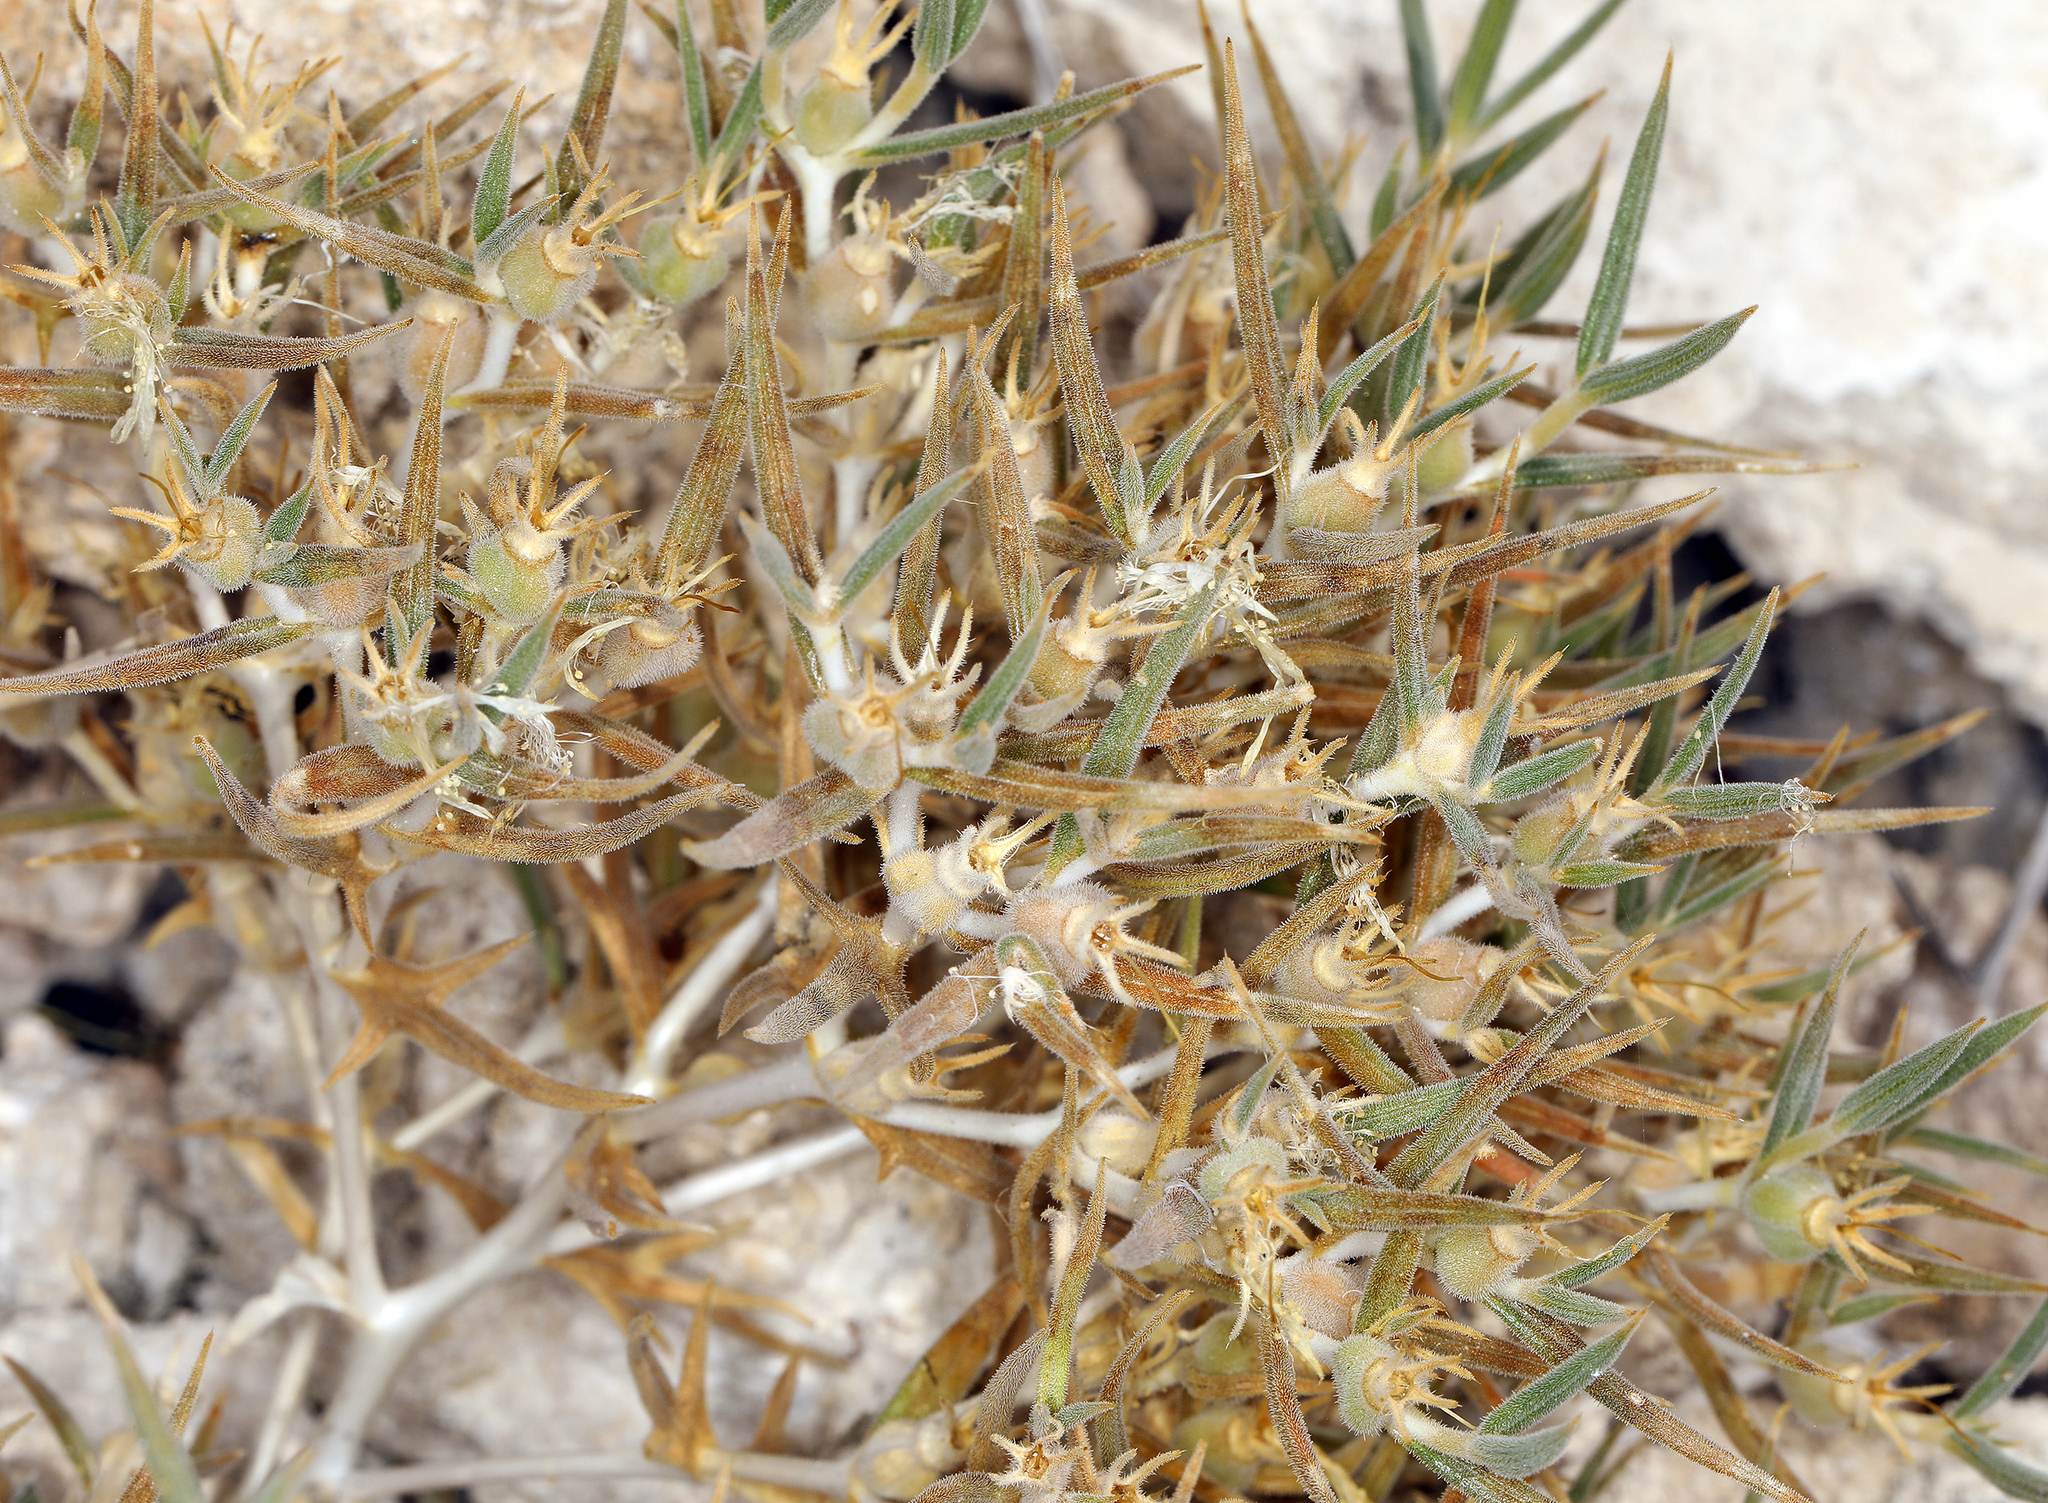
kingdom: Plantae
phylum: Tracheophyta
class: Magnoliopsida
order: Cornales
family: Loasaceae
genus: Mentzelia
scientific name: Mentzelia torreyi
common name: Torrey's blazingstar
